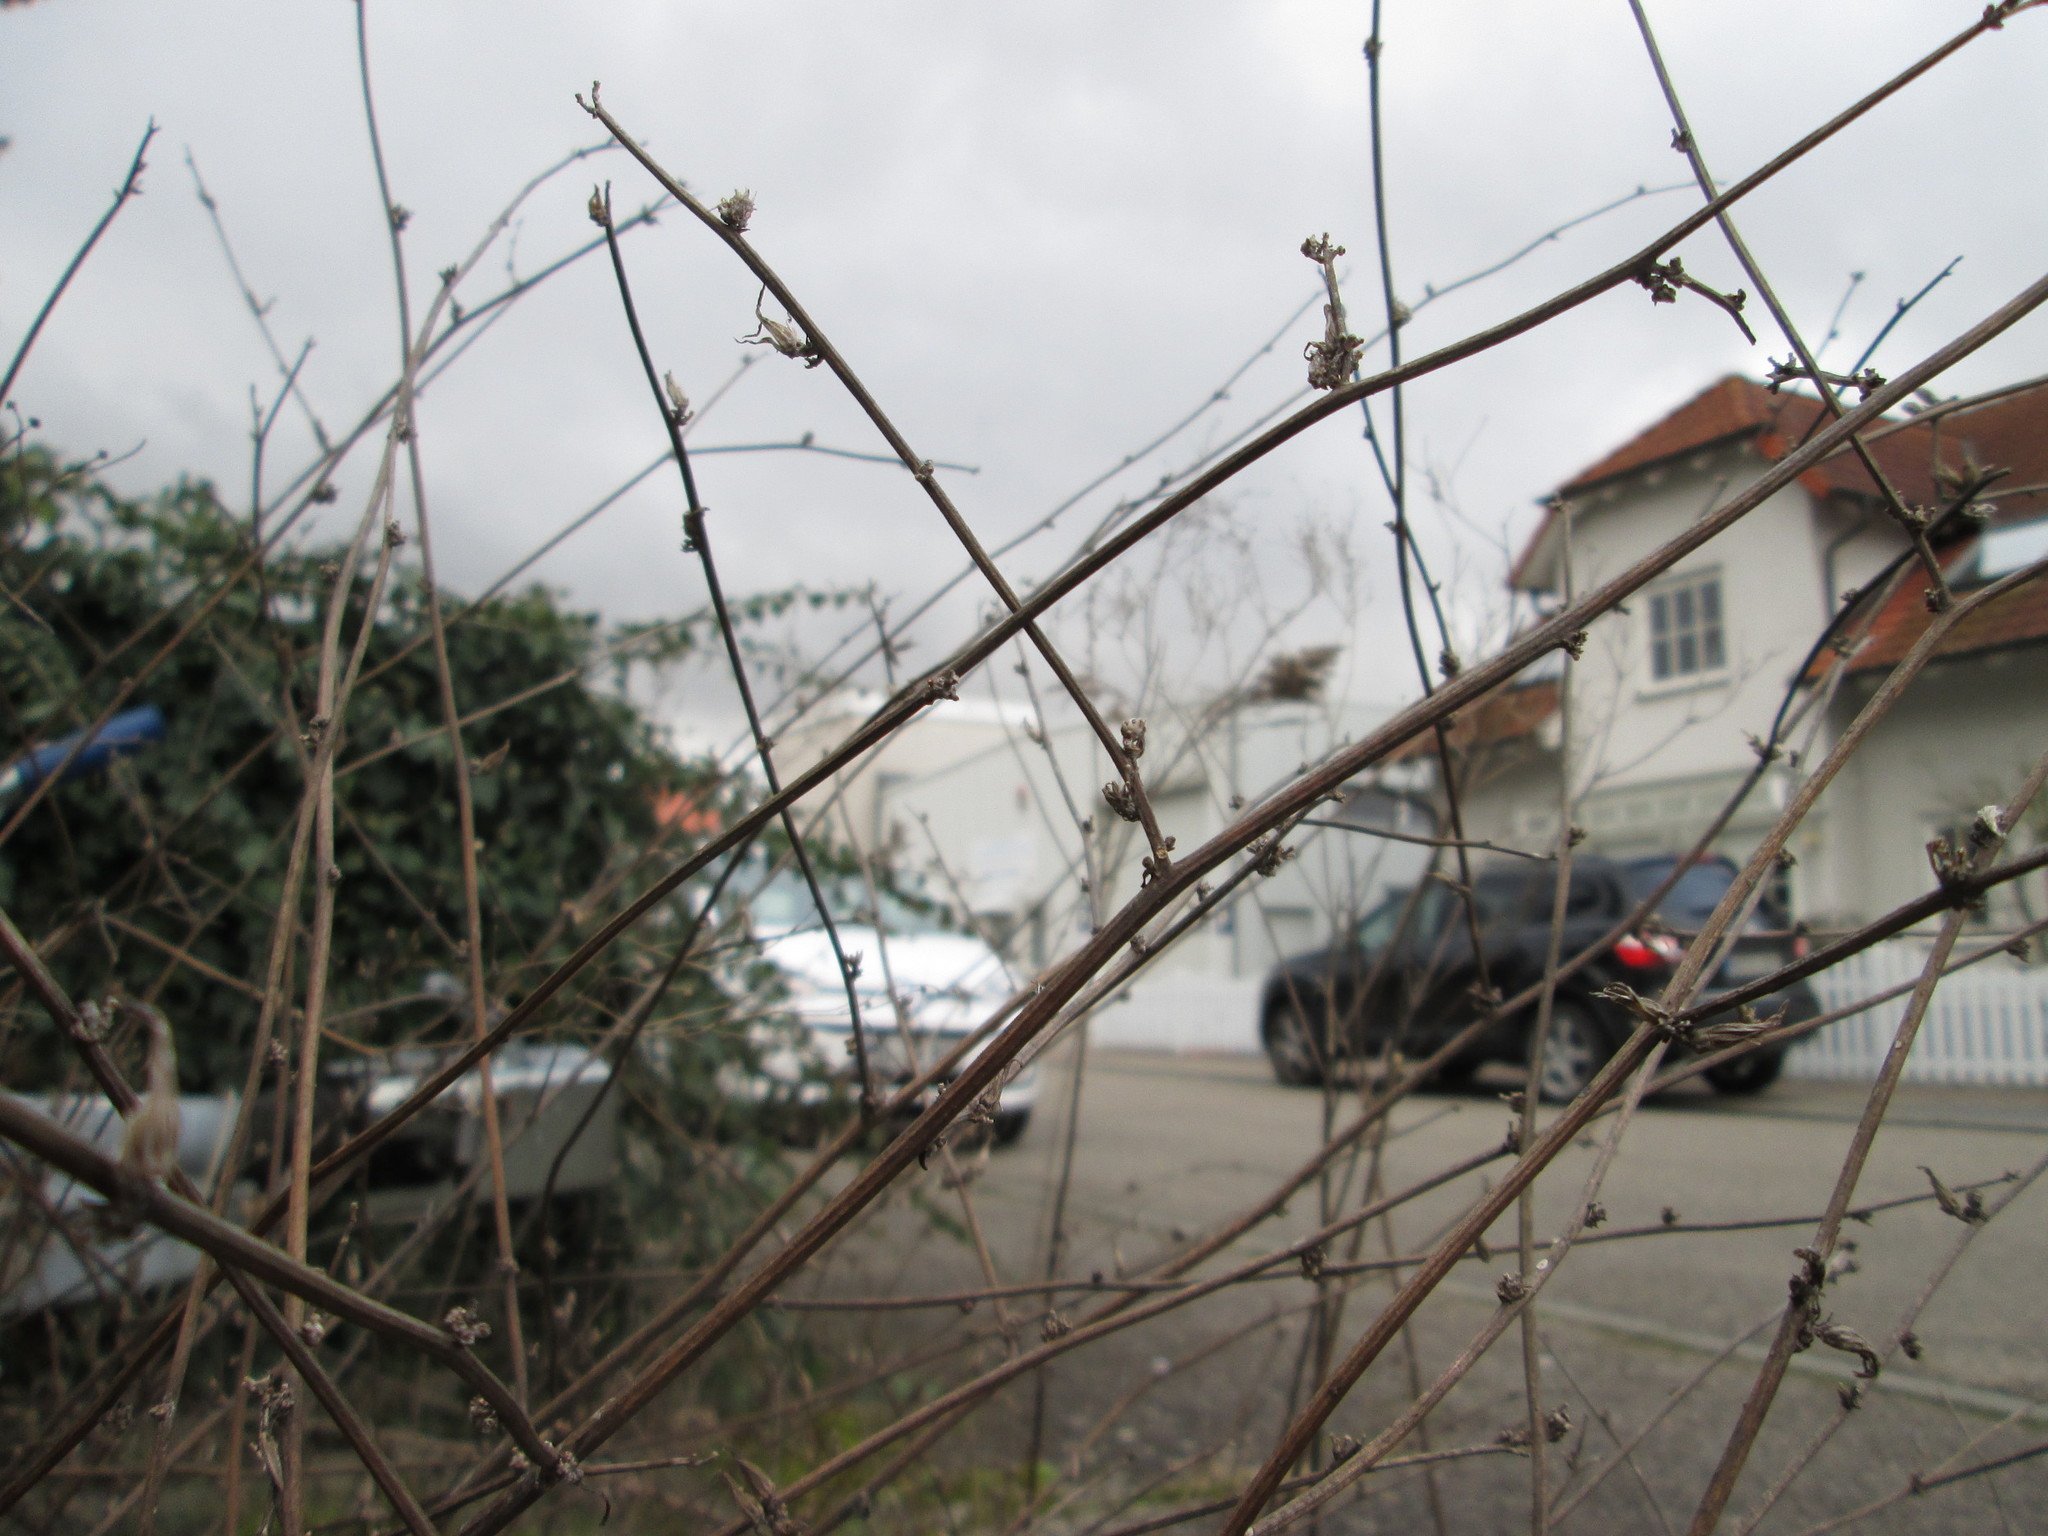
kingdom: Plantae
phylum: Tracheophyta
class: Magnoliopsida
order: Asterales
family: Asteraceae
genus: Chondrilla
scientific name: Chondrilla juncea
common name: Skeleton weed
